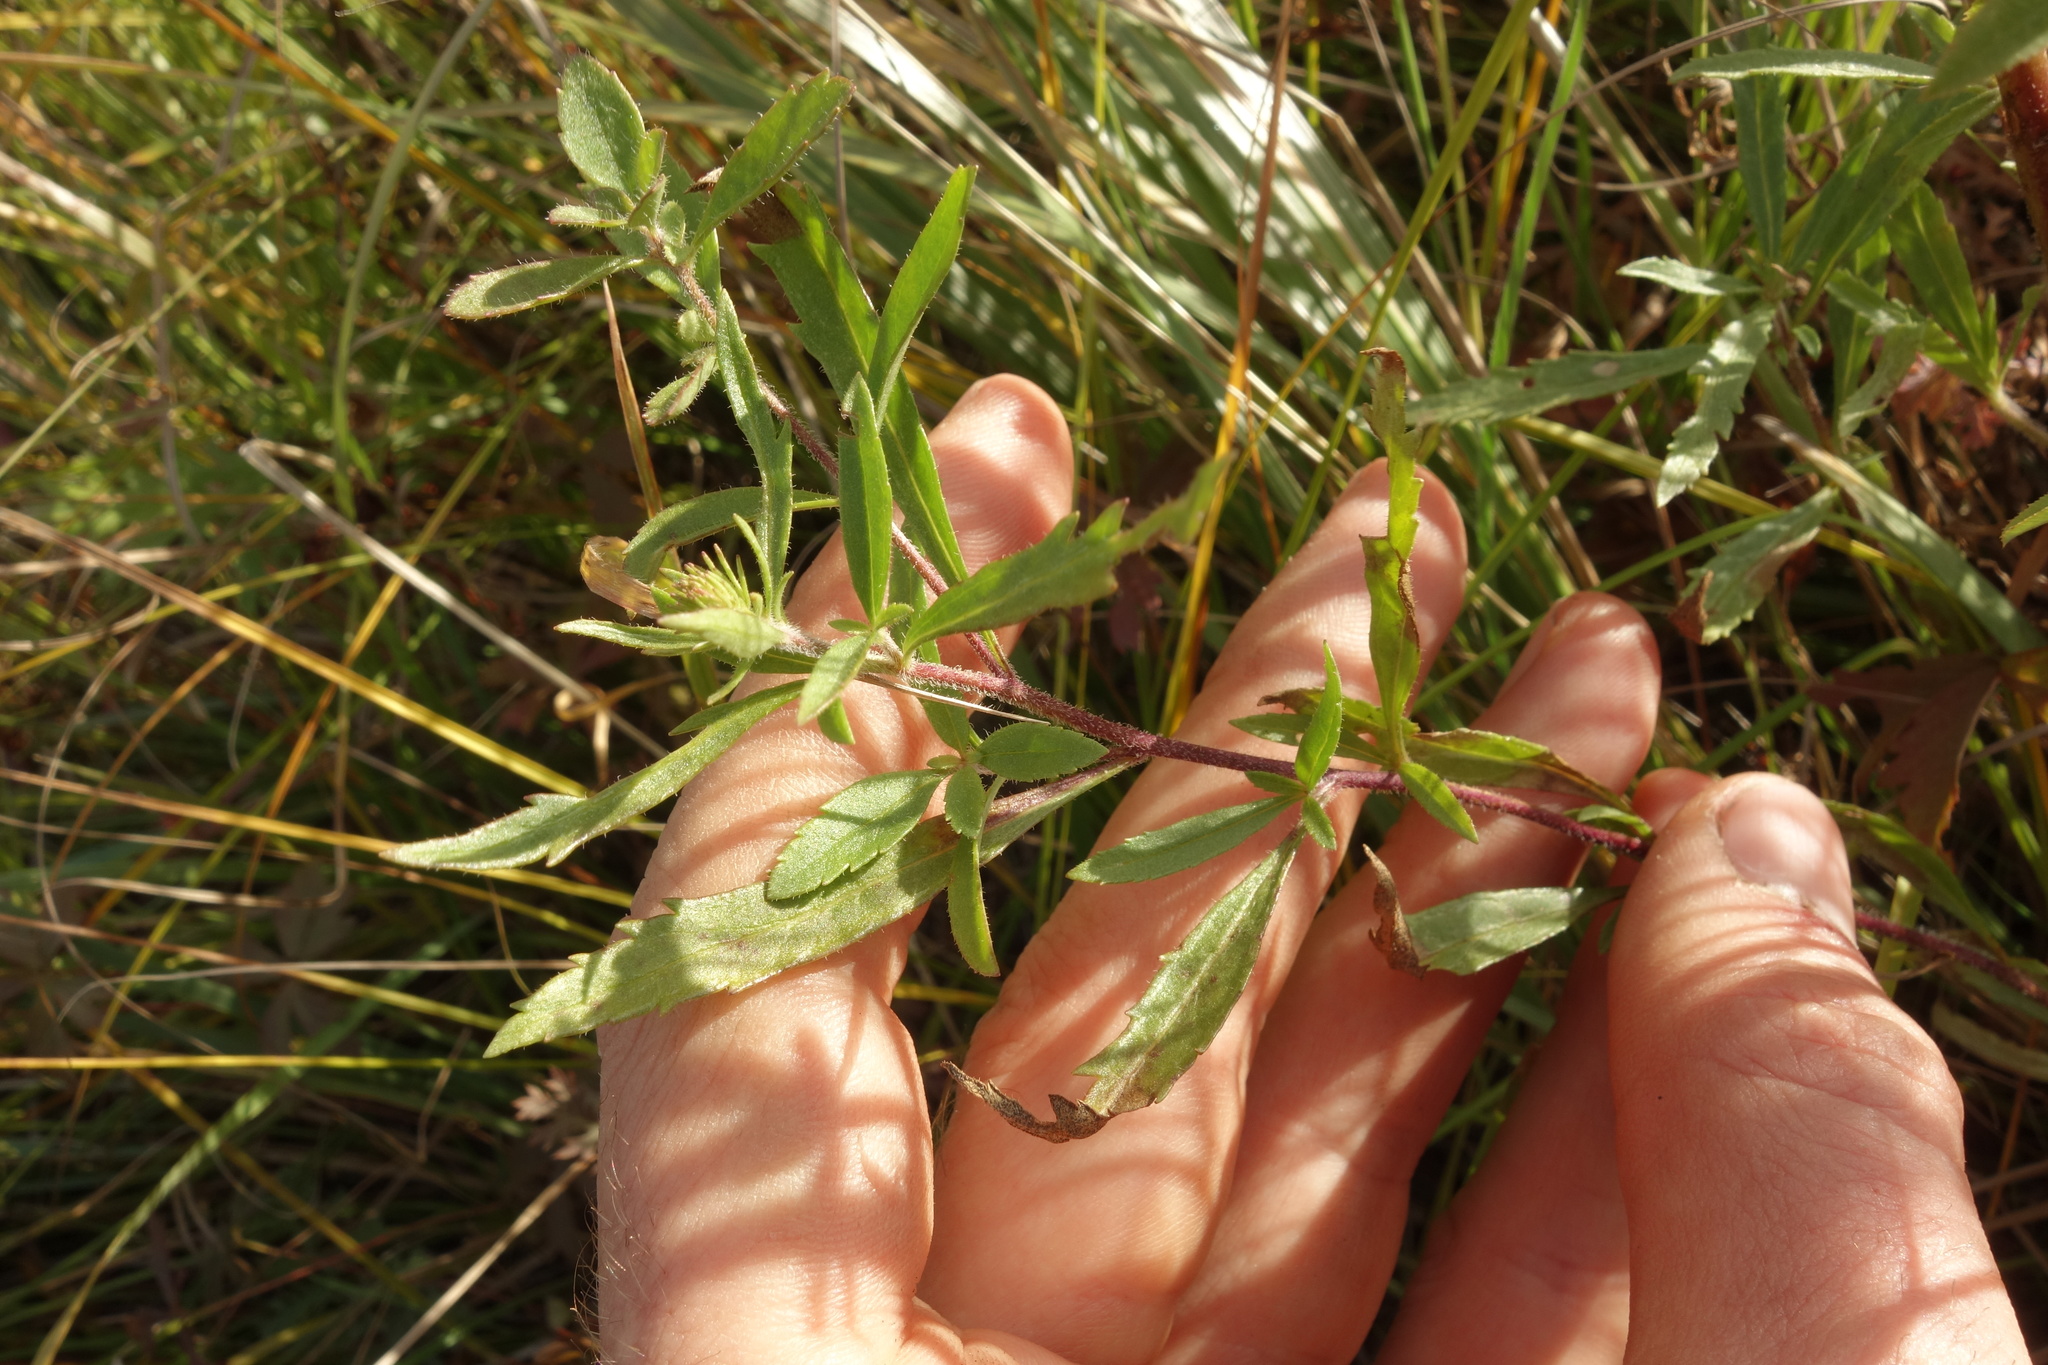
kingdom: Plantae
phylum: Tracheophyta
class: Magnoliopsida
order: Lamiales
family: Plantaginaceae
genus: Veronica
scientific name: Veronica linariifolia
